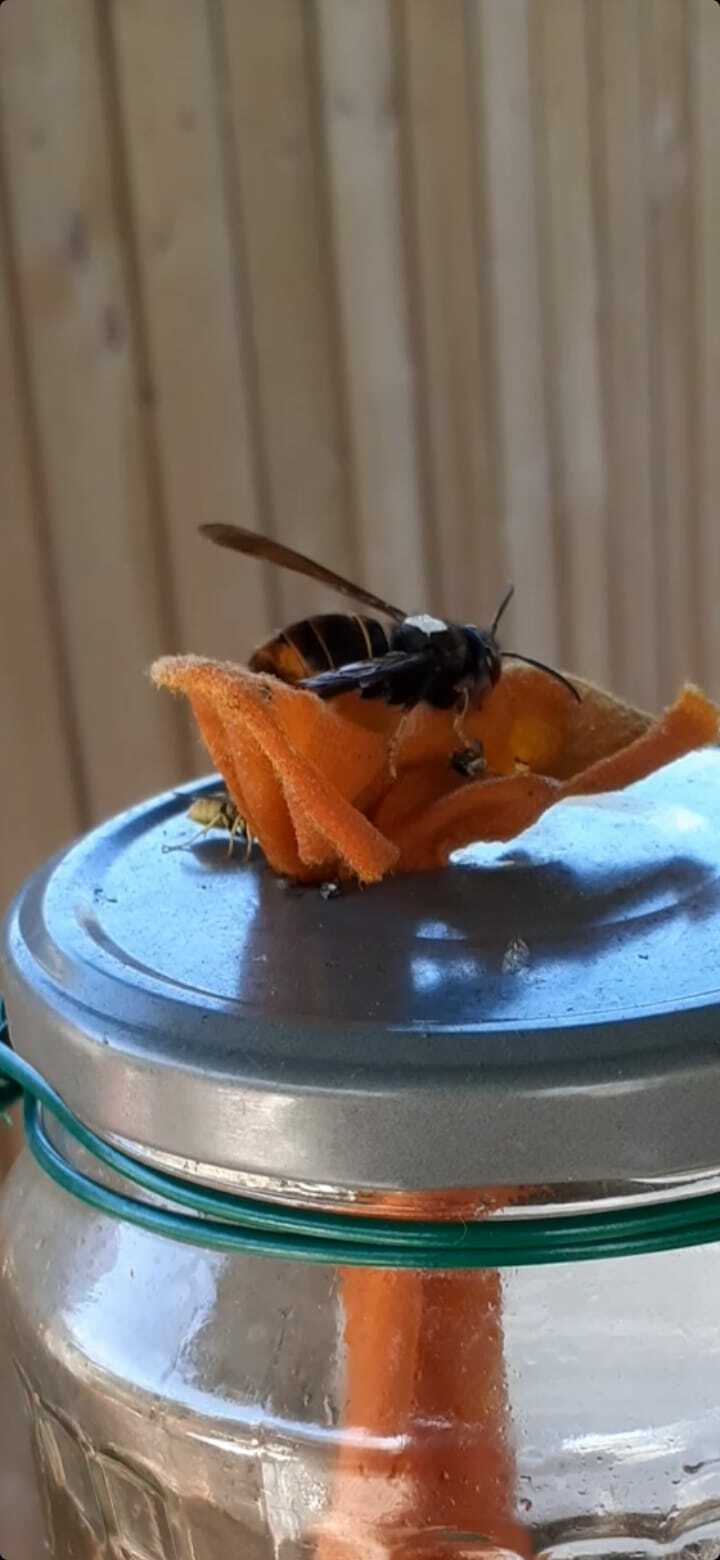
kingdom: Animalia
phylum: Arthropoda
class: Insecta
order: Hymenoptera
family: Vespidae
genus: Vespa
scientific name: Vespa velutina
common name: Asian hornet
